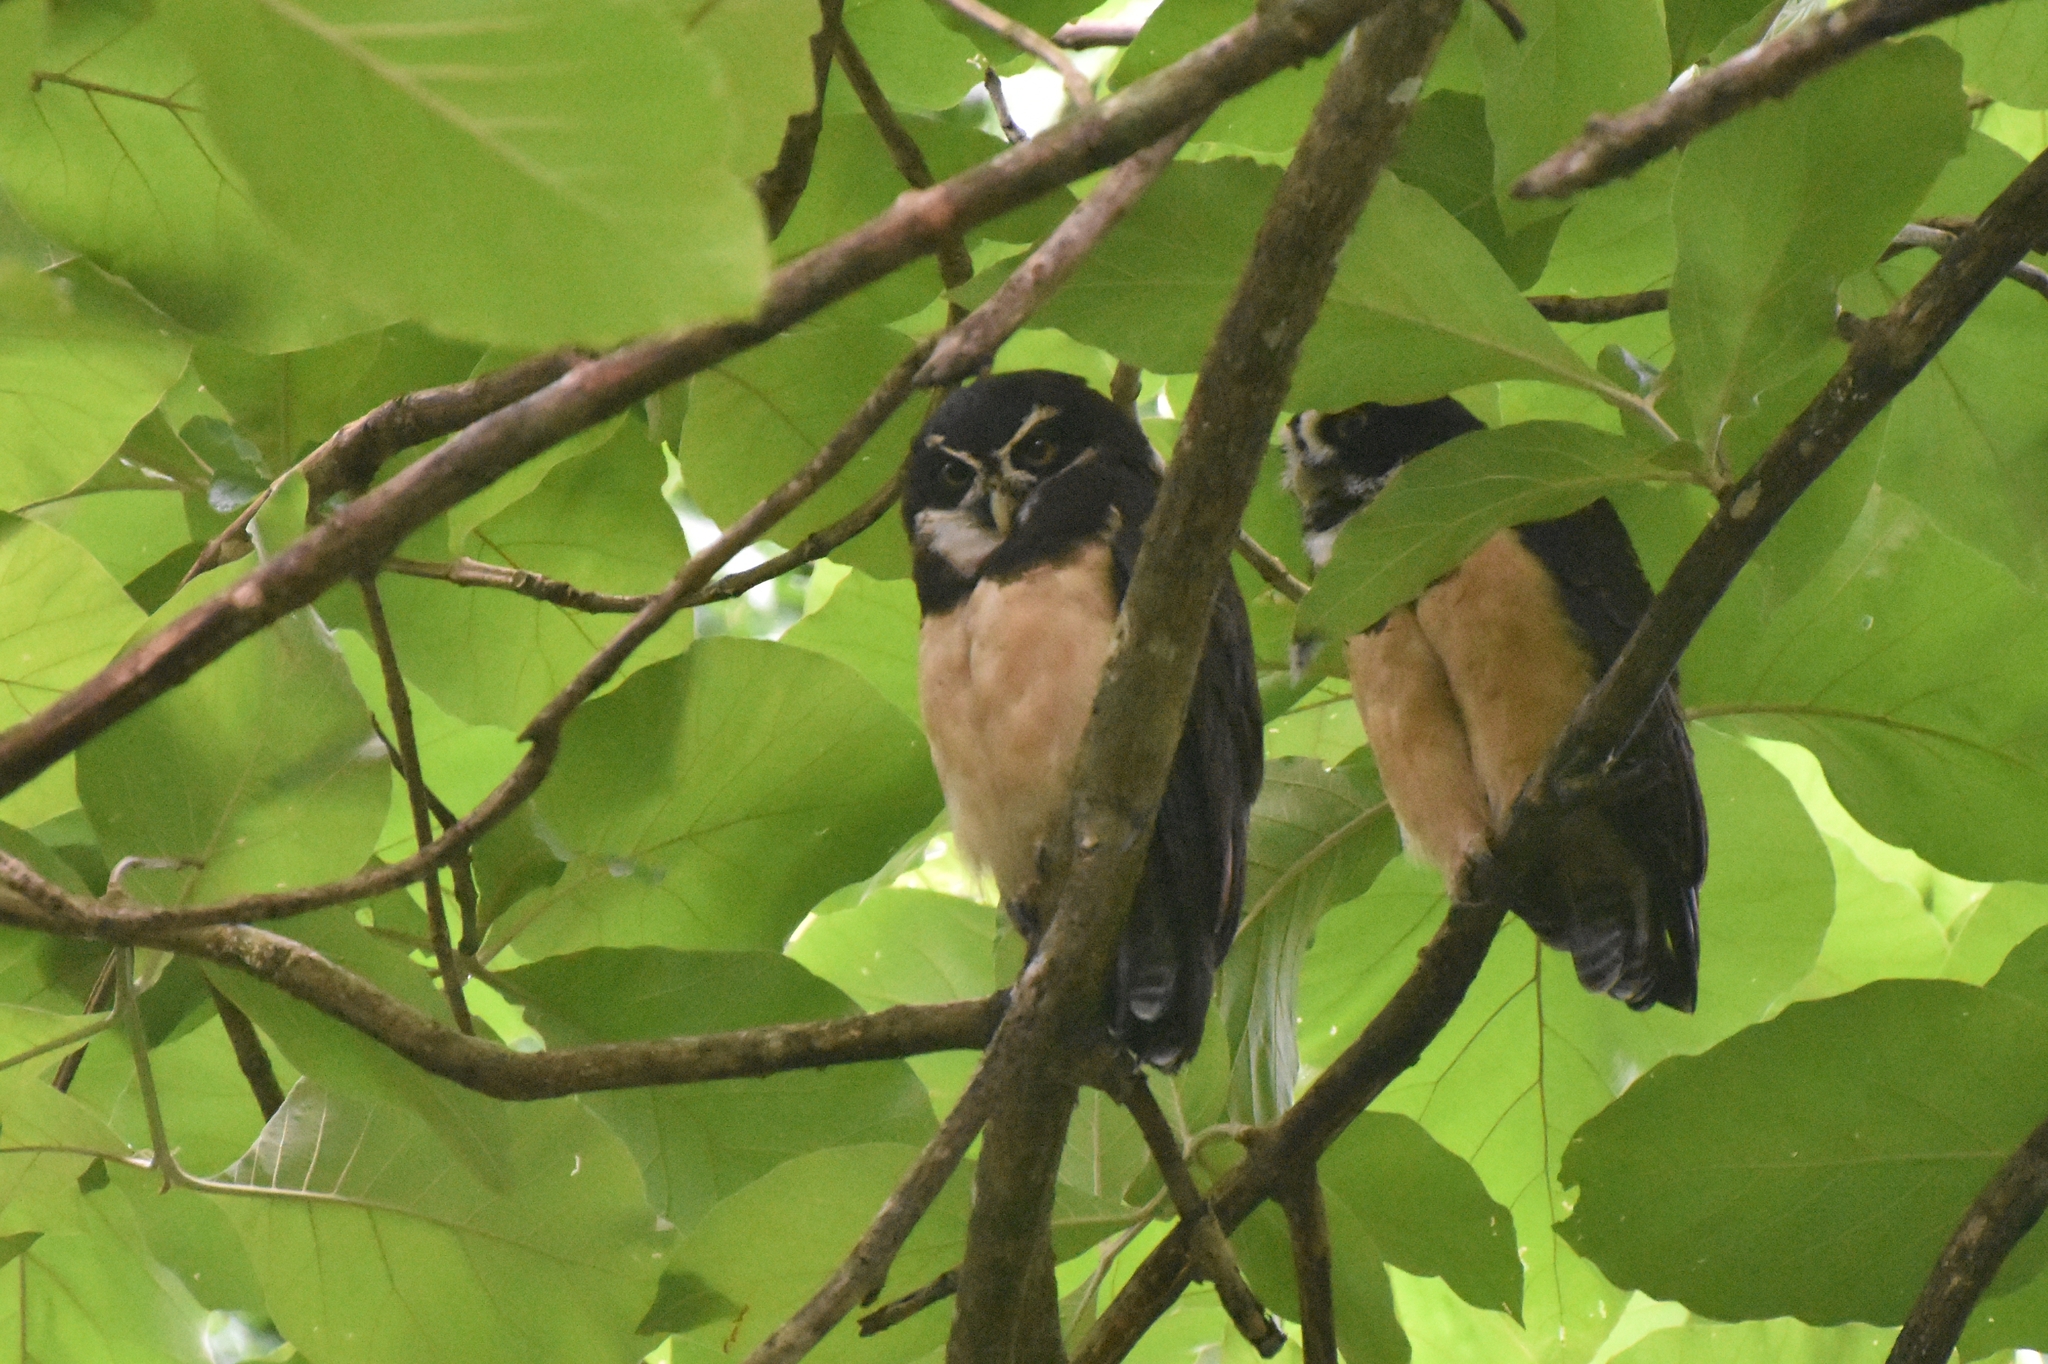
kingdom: Animalia
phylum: Chordata
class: Aves
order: Strigiformes
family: Strigidae
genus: Pulsatrix
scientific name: Pulsatrix perspicillata
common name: Spectacled owl
